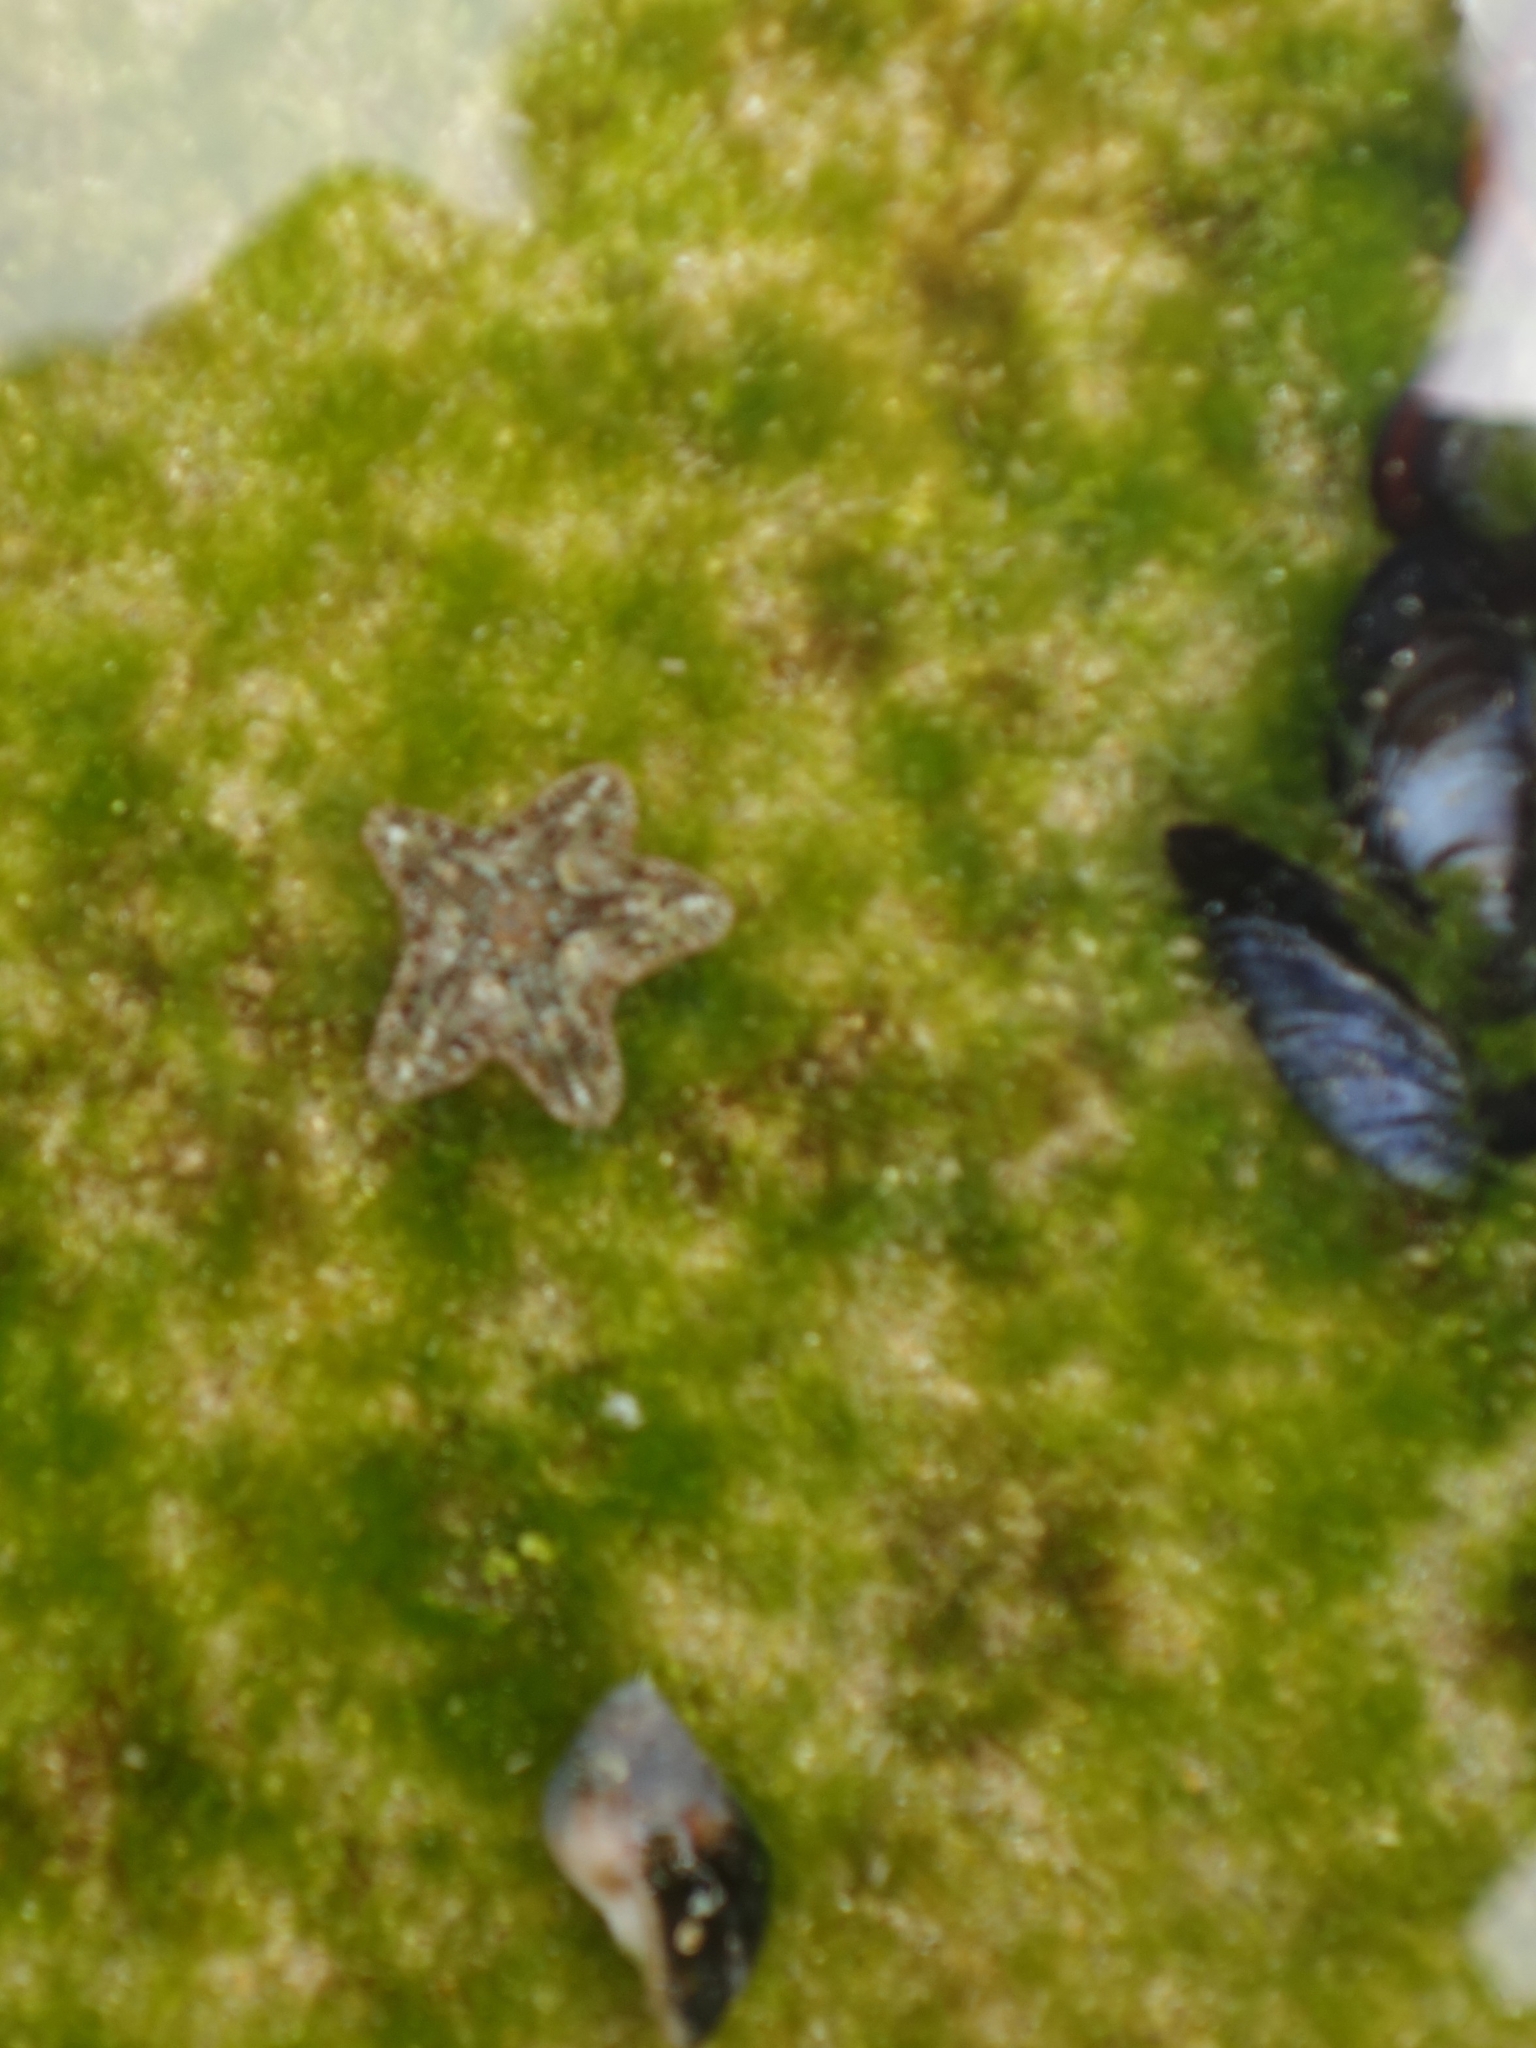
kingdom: Animalia
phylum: Echinodermata
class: Asteroidea
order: Valvatida
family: Asterinidae
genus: Parvulastra
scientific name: Parvulastra exigua
